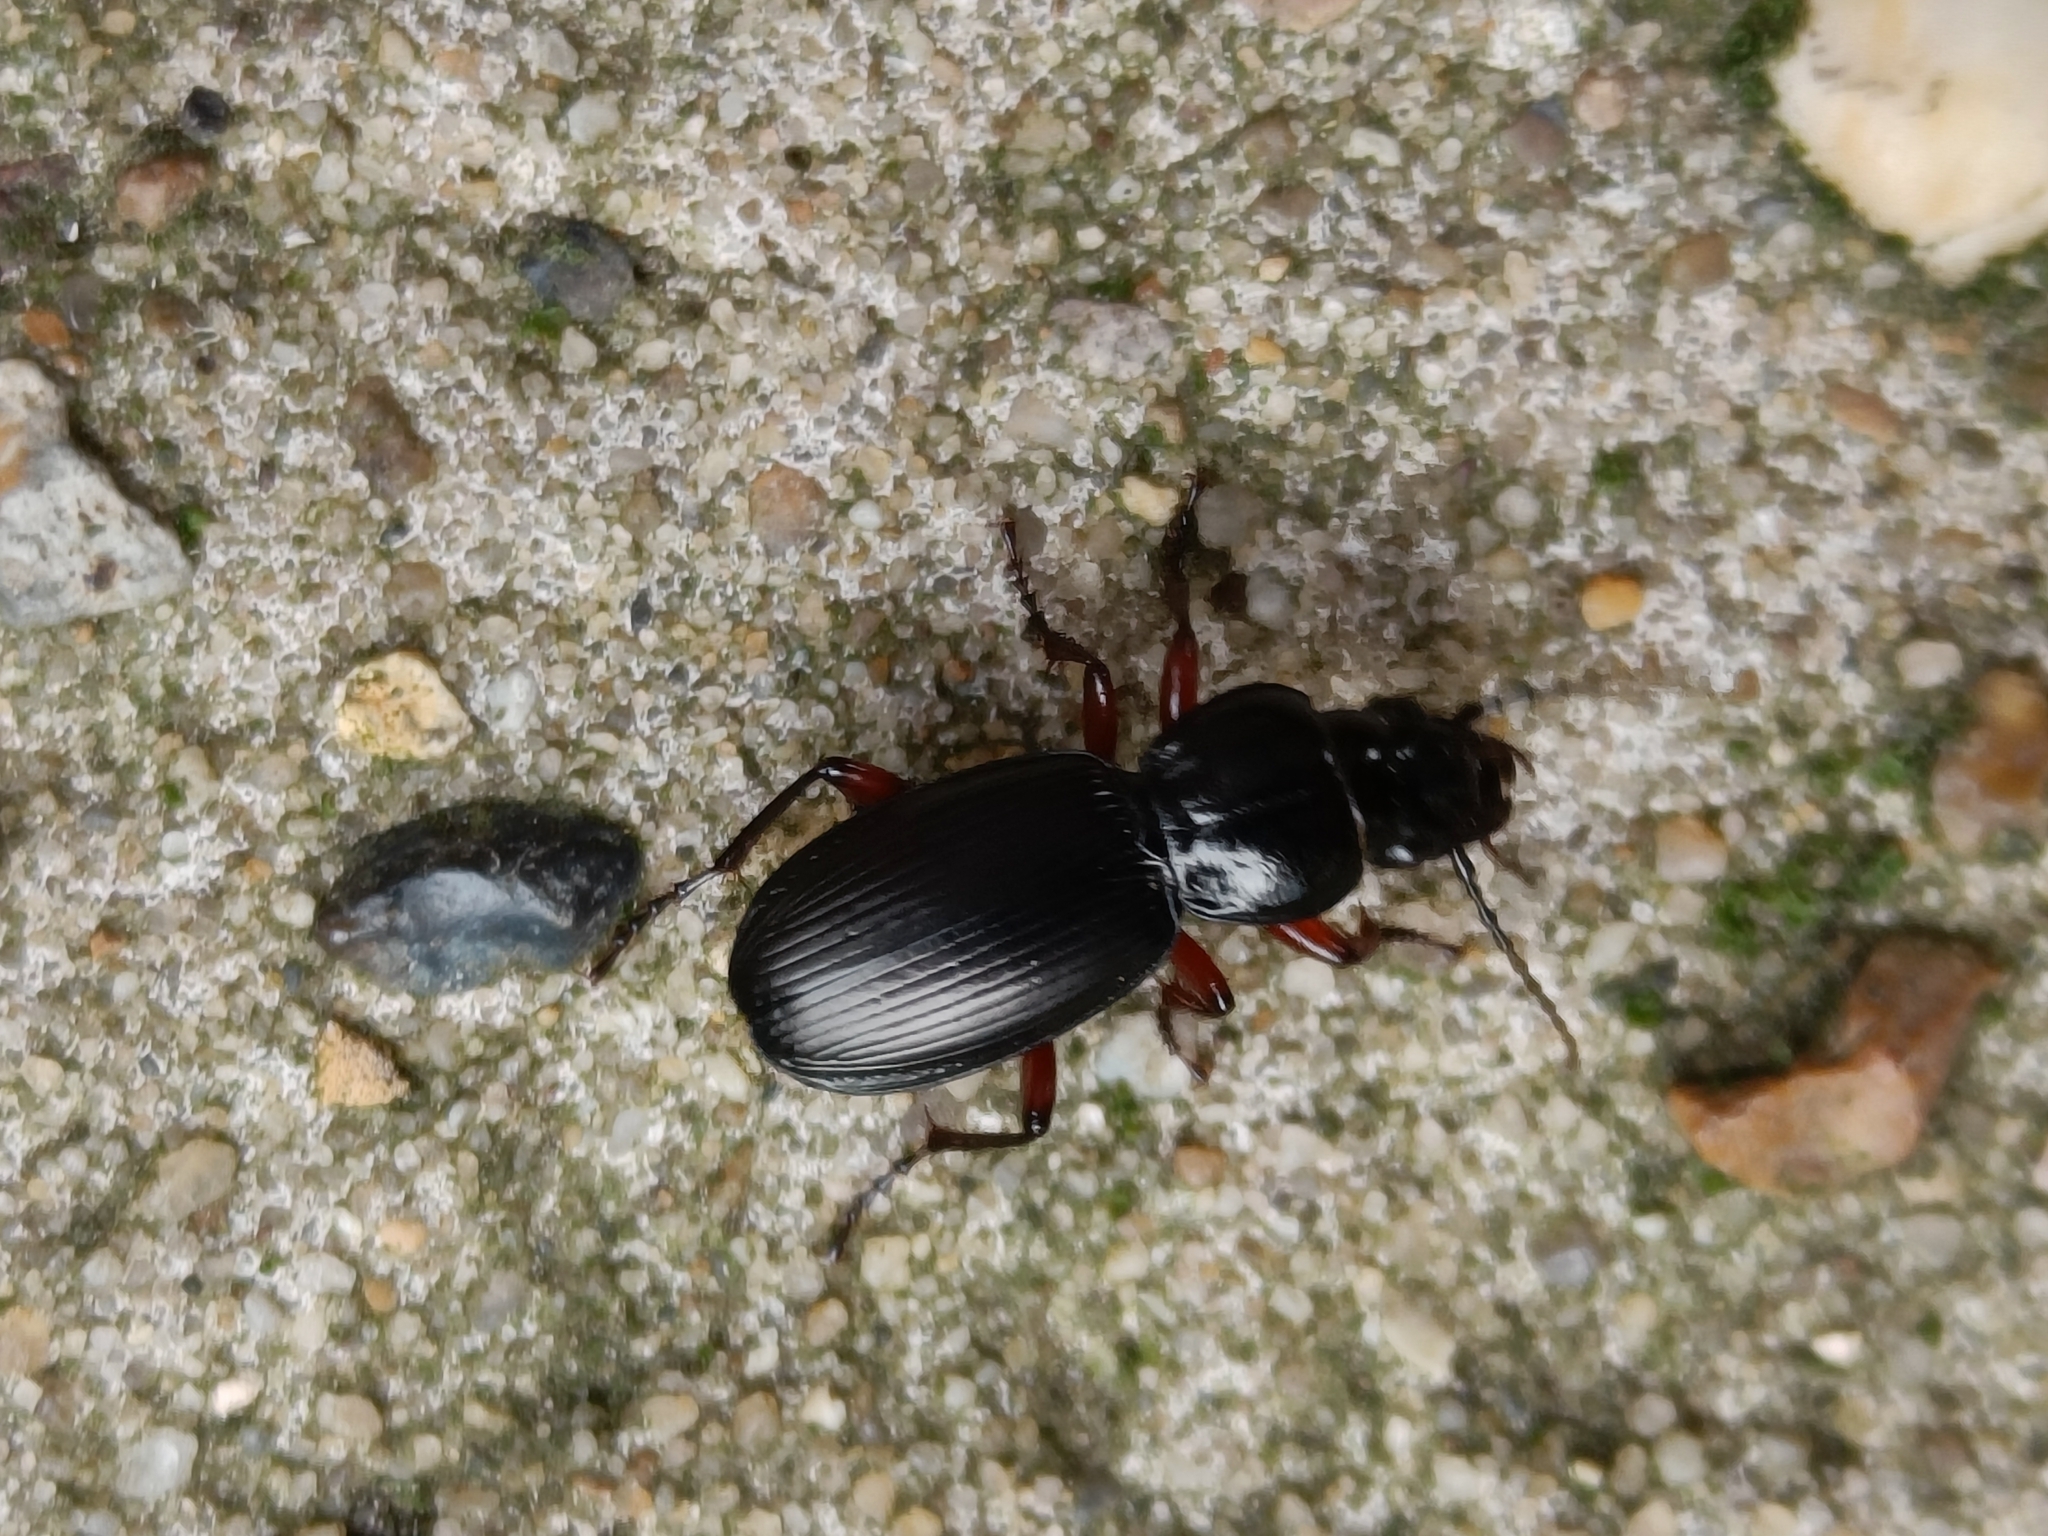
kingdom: Animalia
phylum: Arthropoda
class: Insecta
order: Coleoptera
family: Carabidae
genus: Pterostichus
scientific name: Pterostichus madidus
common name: Black clock
